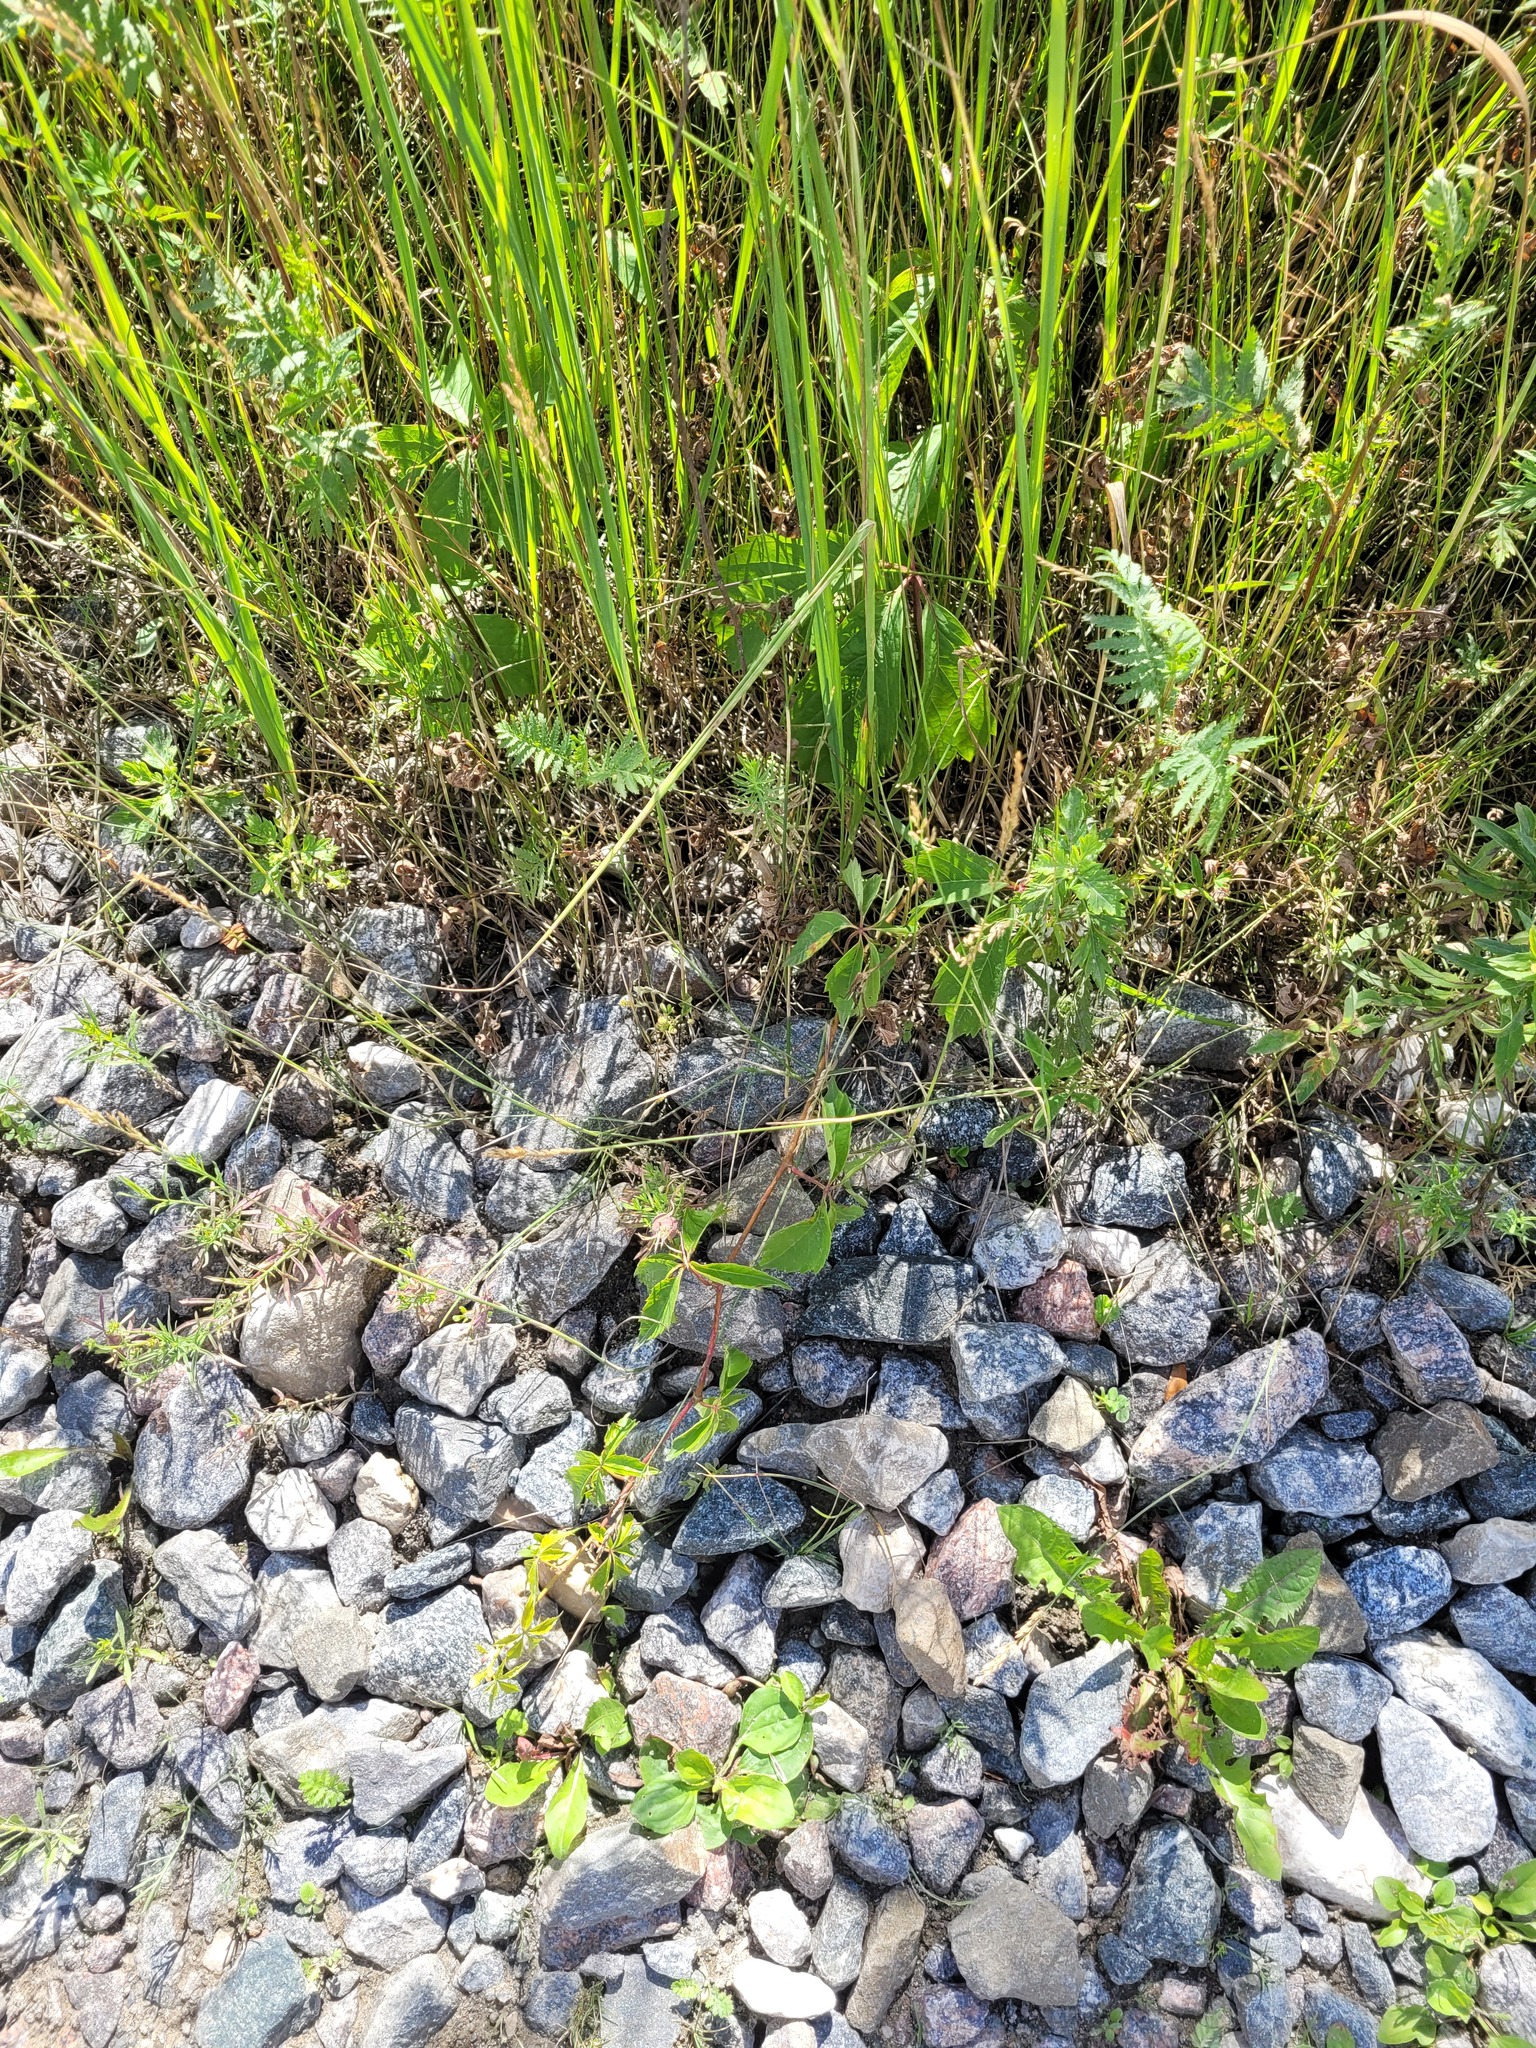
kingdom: Plantae
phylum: Tracheophyta
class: Magnoliopsida
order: Vitales
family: Vitaceae
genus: Parthenocissus
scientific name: Parthenocissus inserta
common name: False virginia-creeper
